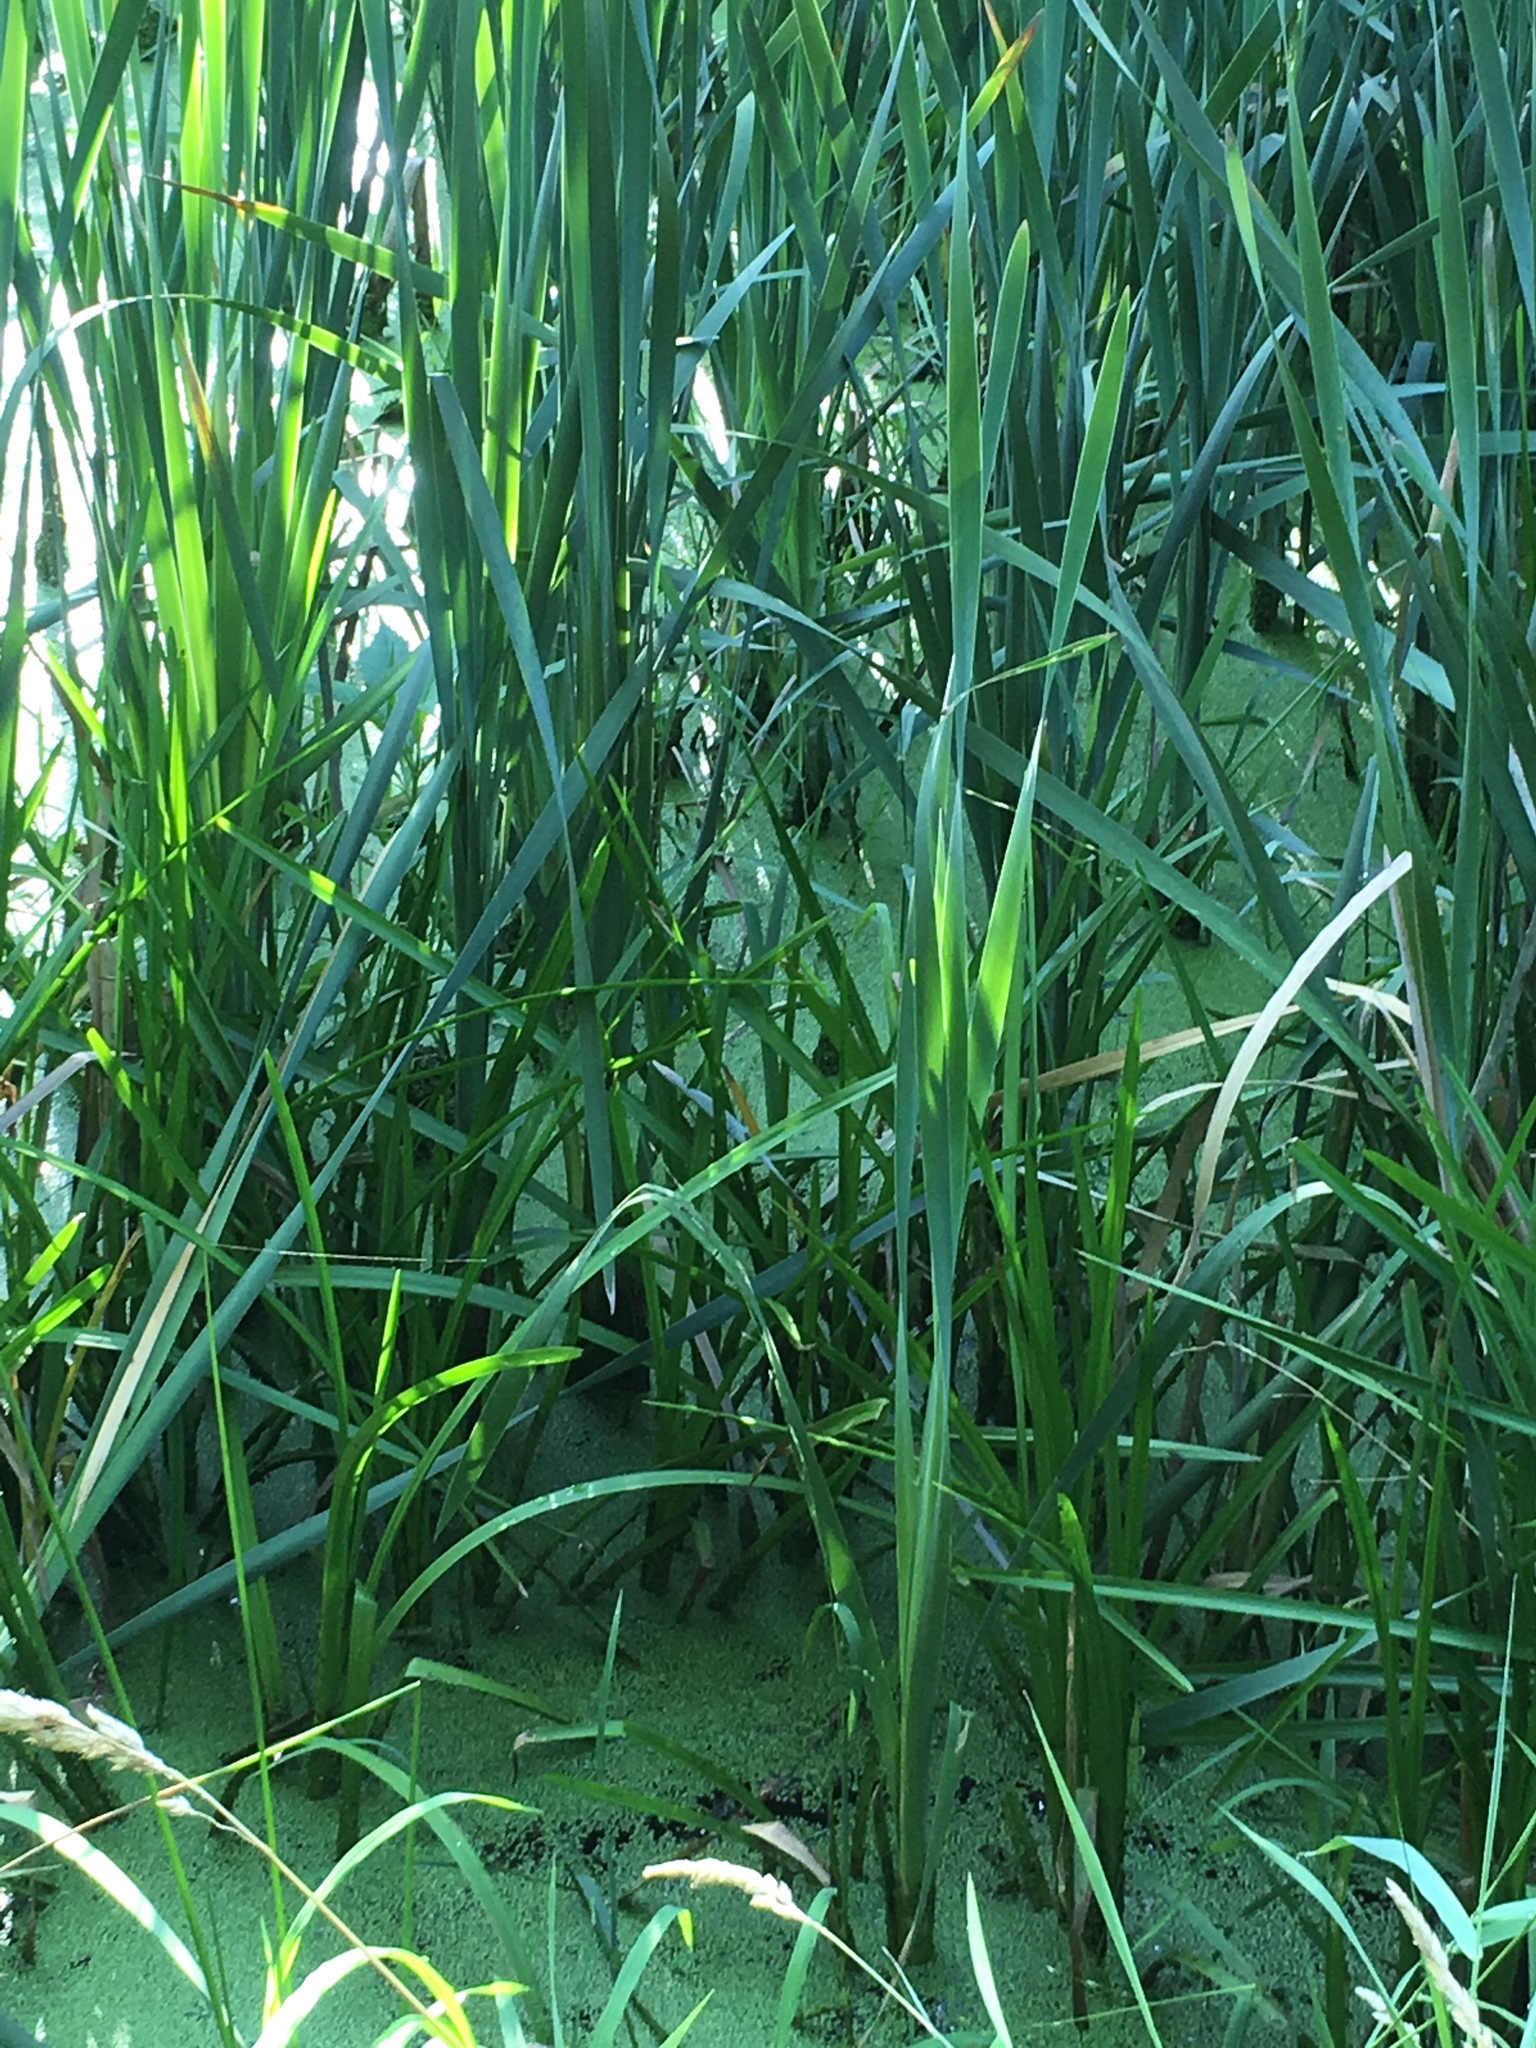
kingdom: Animalia
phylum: Chordata
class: Amphibia
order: Anura
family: Ranidae
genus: Lithobates
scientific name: Lithobates clamitans
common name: Green frog
